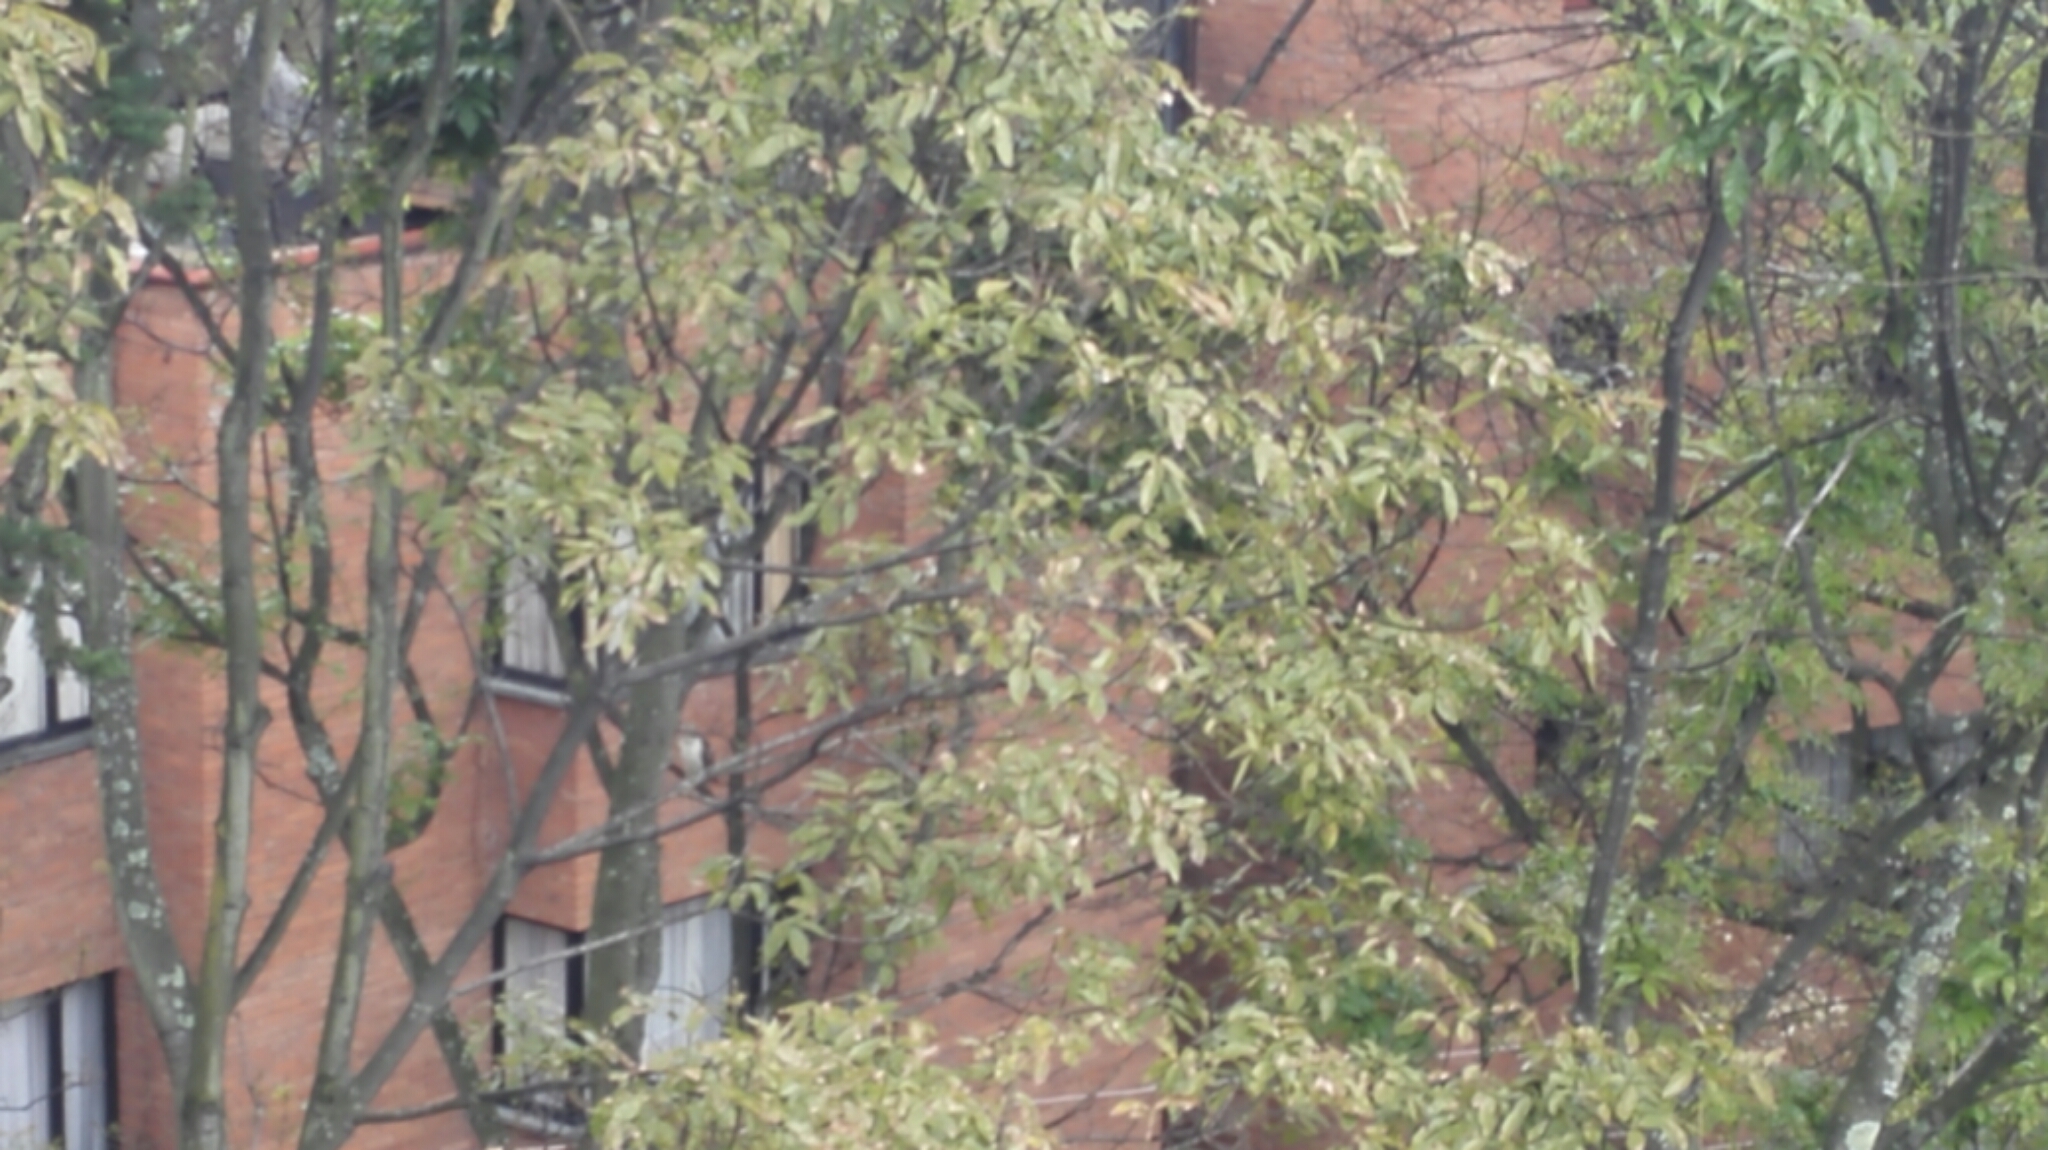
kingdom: Animalia
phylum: Chordata
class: Aves
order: Accipitriformes
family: Accipitridae
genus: Buteo
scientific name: Buteo platypterus
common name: Broad-winged hawk
